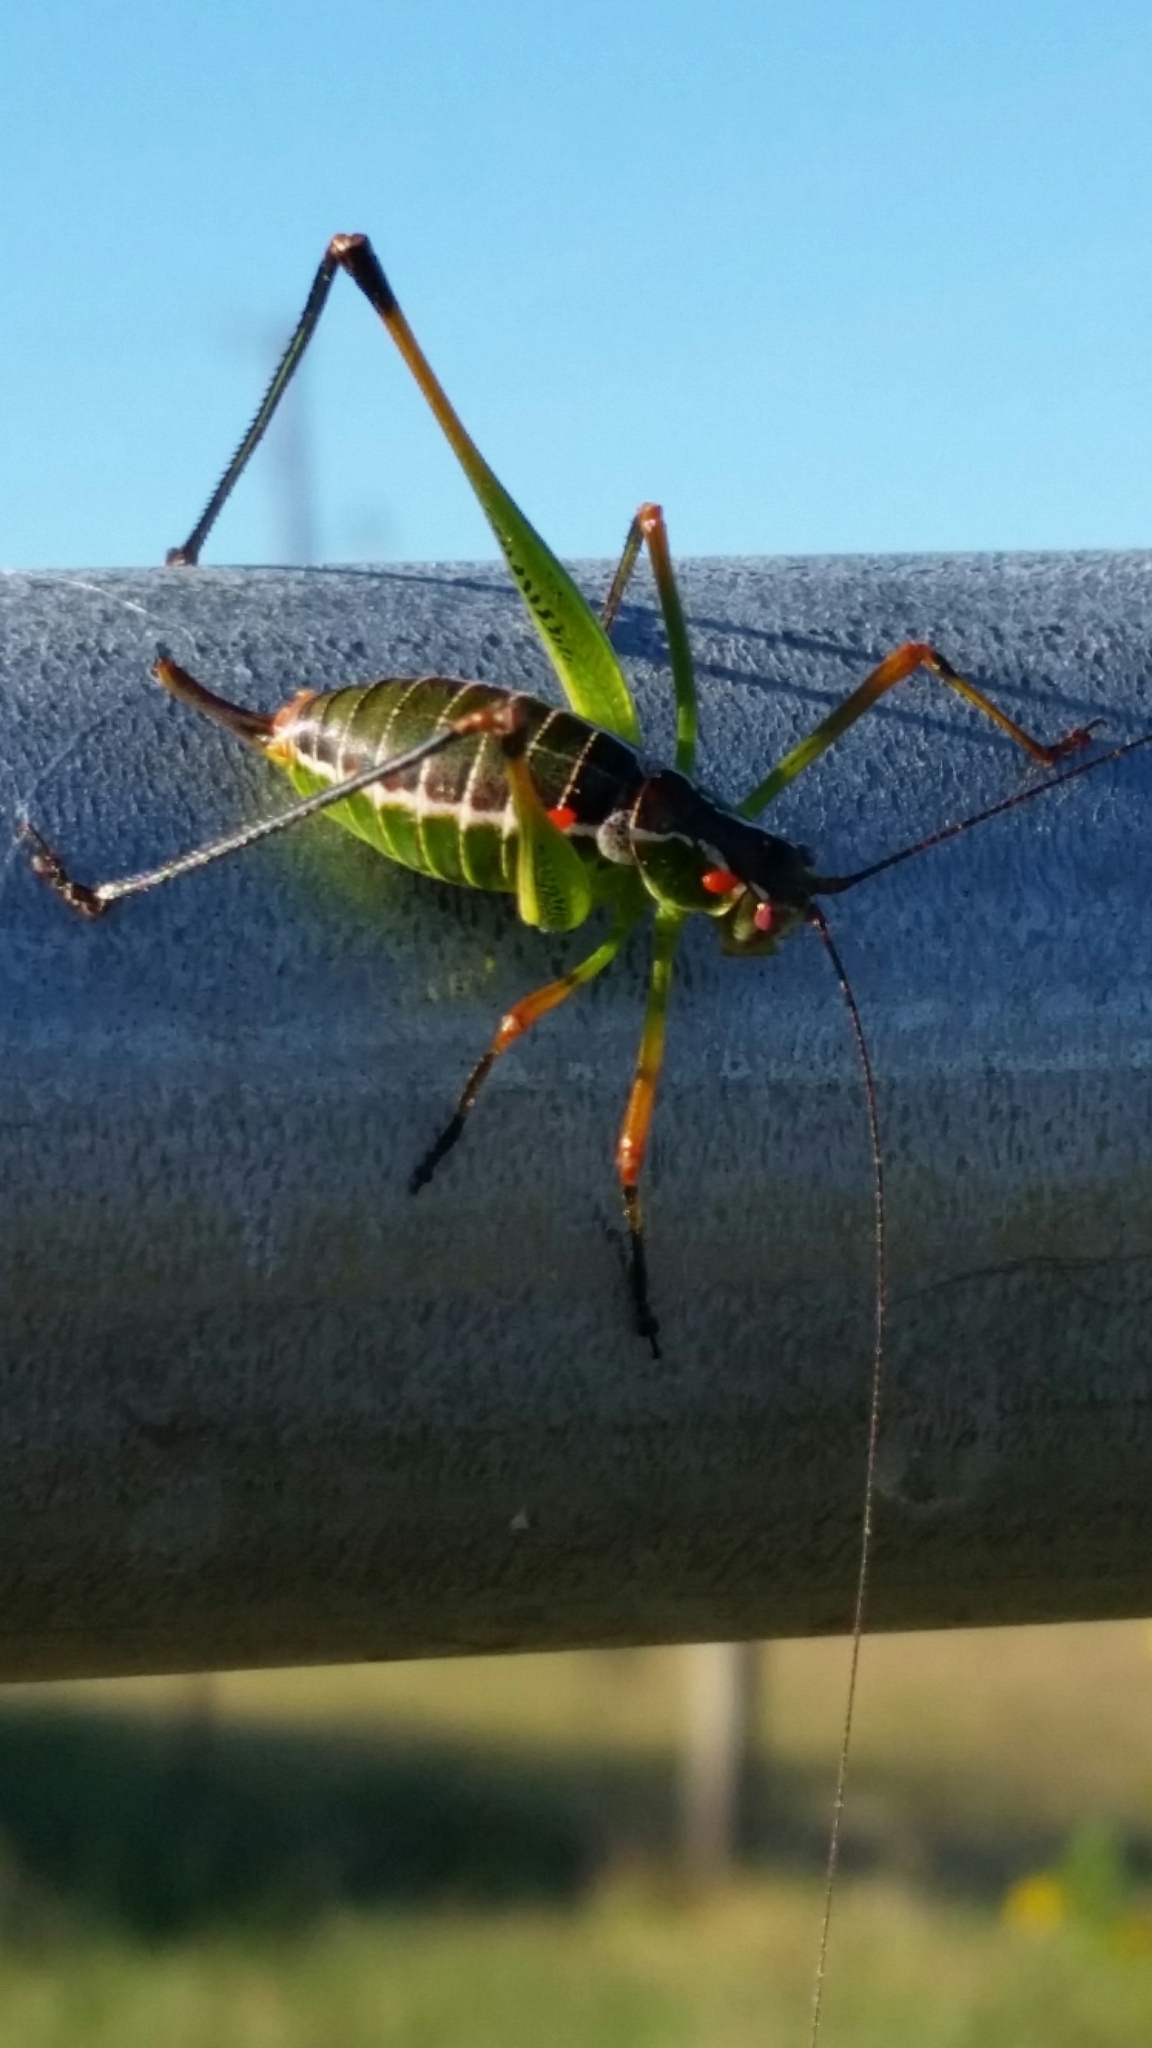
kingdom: Animalia
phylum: Arthropoda
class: Insecta
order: Orthoptera
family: Tettigoniidae
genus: Obolopteryx
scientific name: Obolopteryx castanea
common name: Chestnut short-winged katydid
